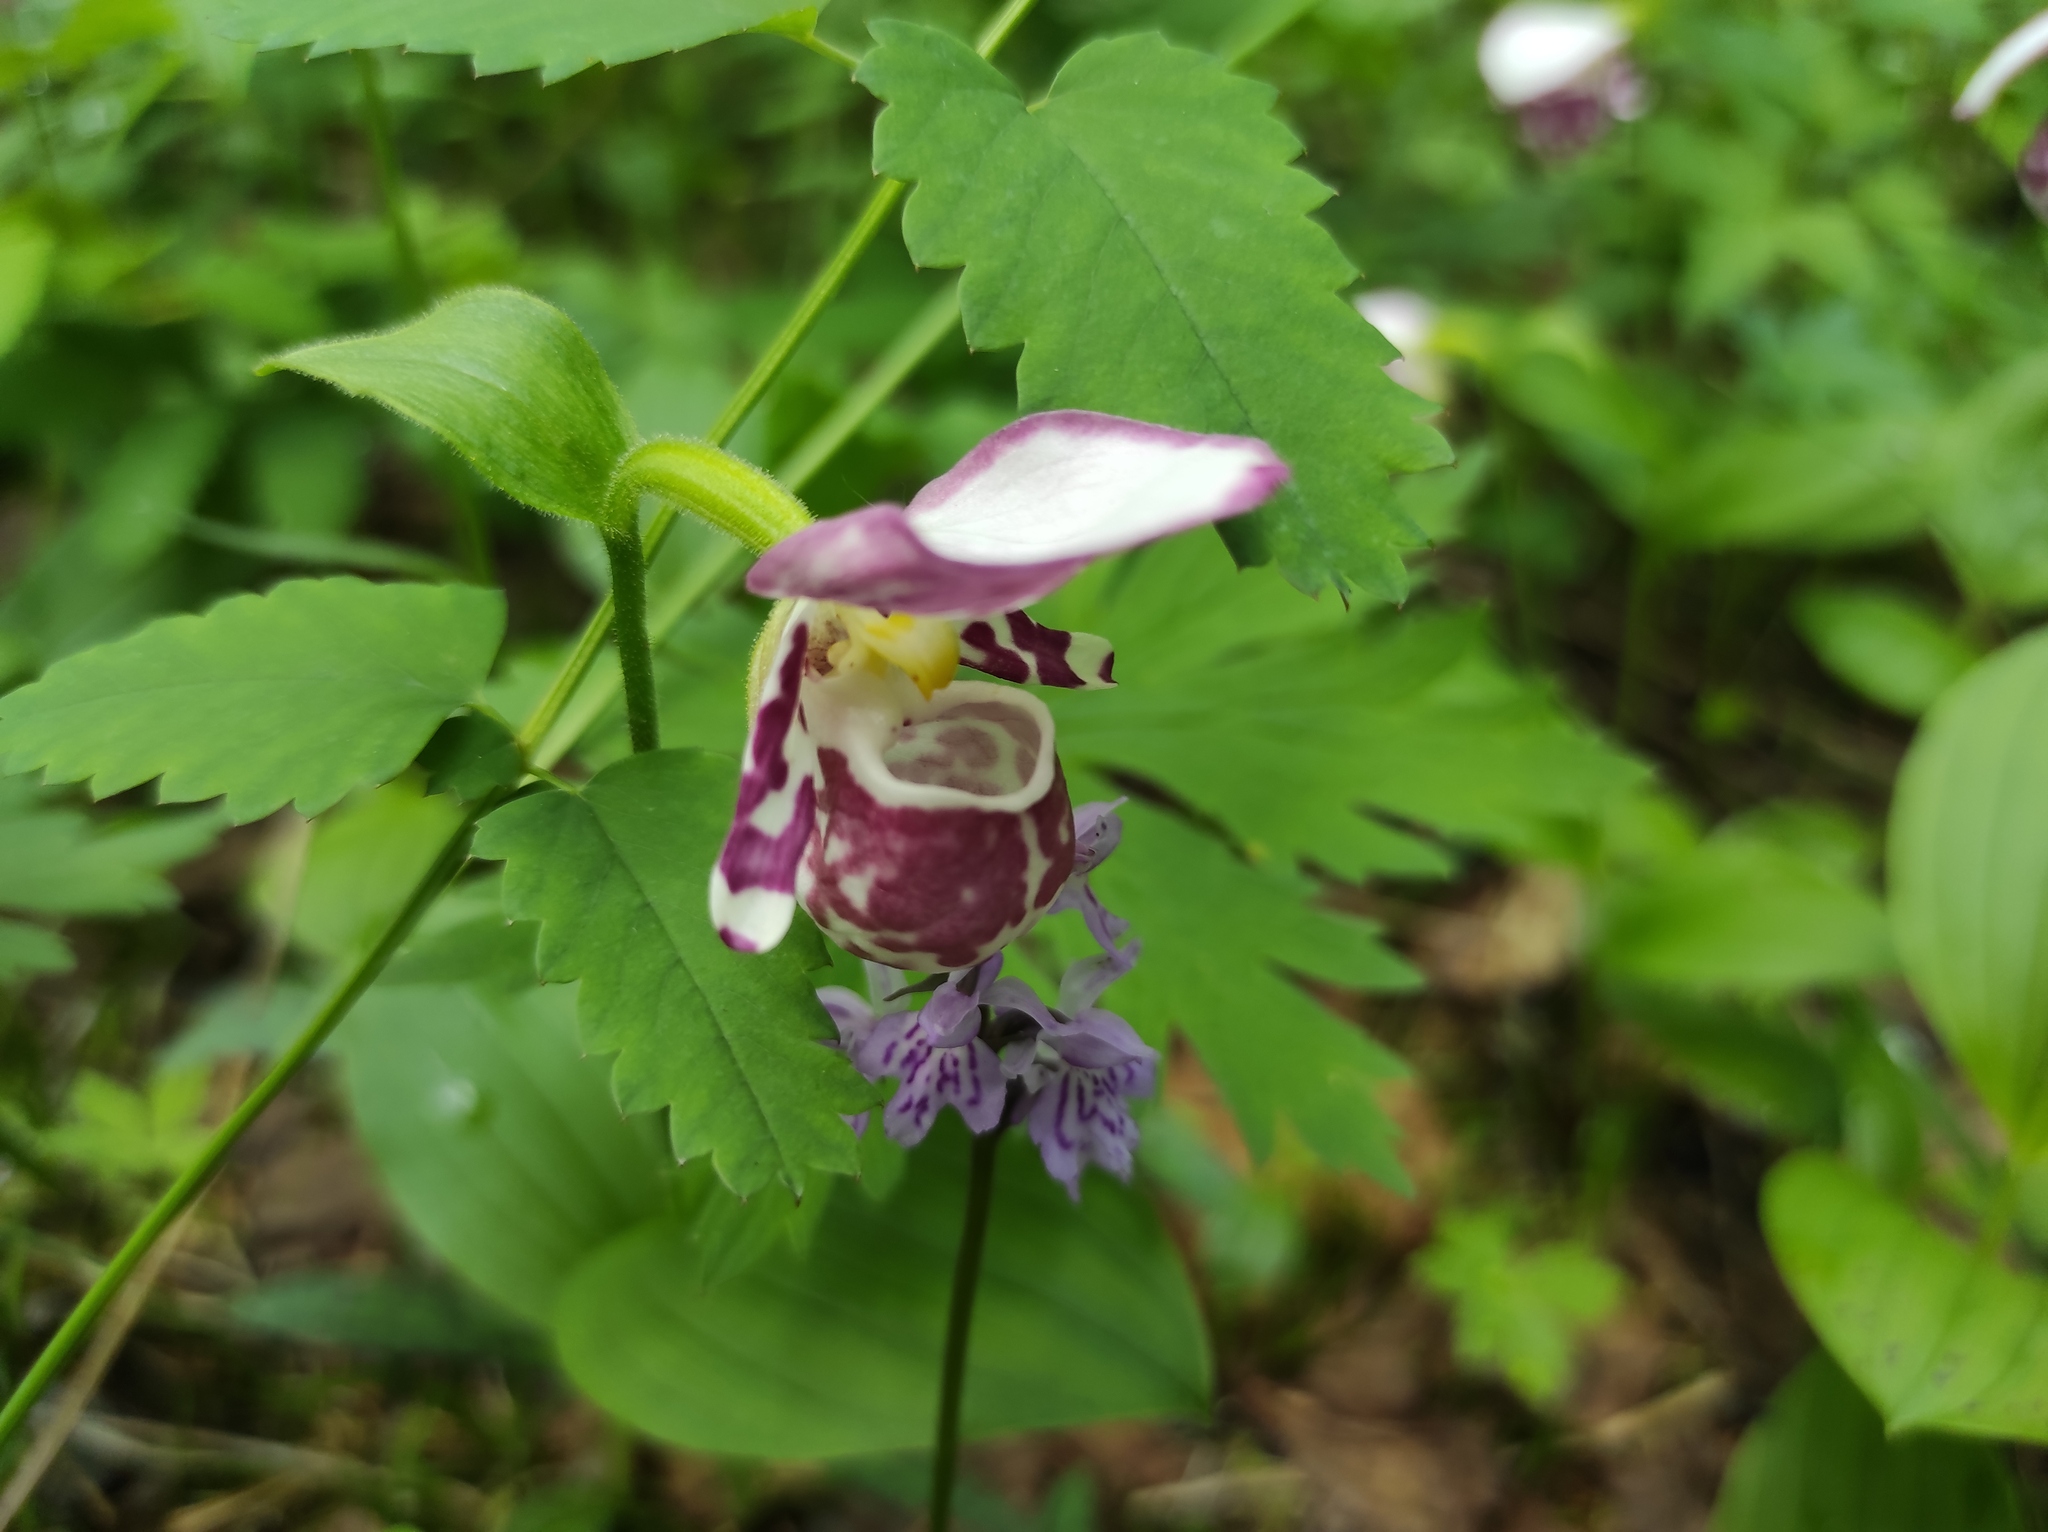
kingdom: Plantae
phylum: Tracheophyta
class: Liliopsida
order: Asparagales
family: Orchidaceae
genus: Cypripedium
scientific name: Cypripedium guttatum
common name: Pink lady slipper
